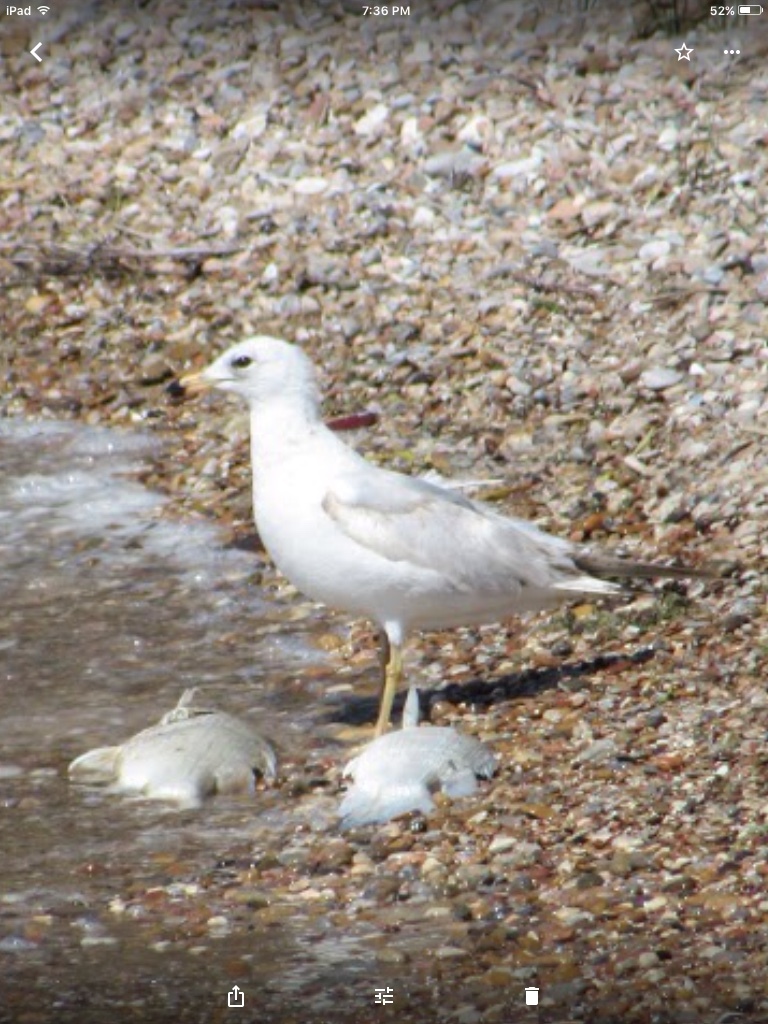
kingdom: Animalia
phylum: Chordata
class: Aves
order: Charadriiformes
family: Laridae
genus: Larus
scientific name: Larus delawarensis
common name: Ring-billed gull
